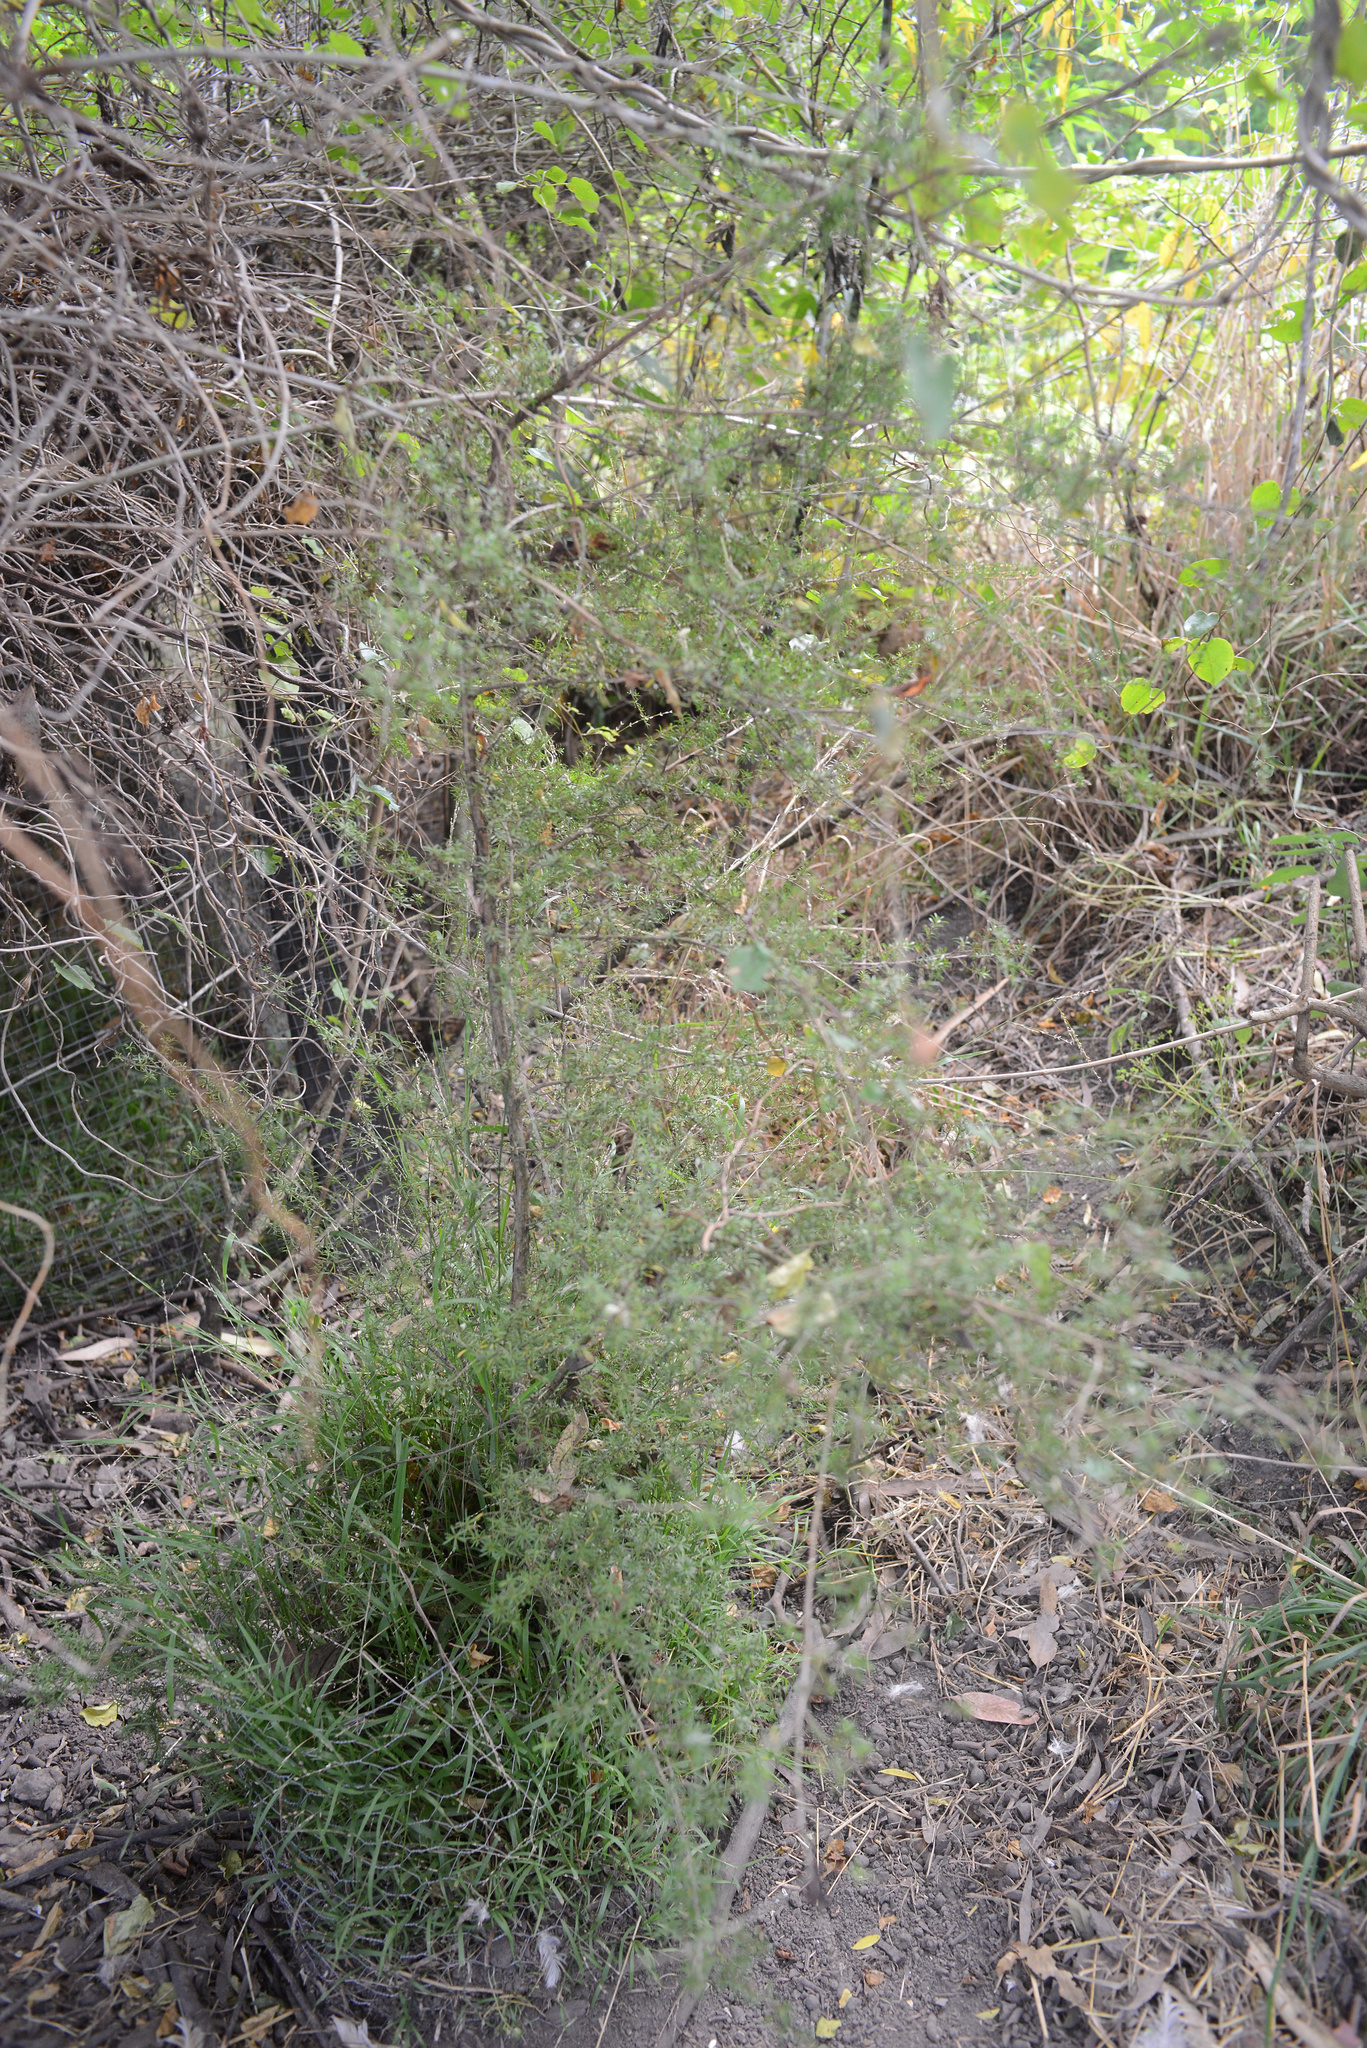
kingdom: Plantae
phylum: Tracheophyta
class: Magnoliopsida
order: Myrtales
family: Myrtaceae
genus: Kunzea
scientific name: Kunzea robusta
